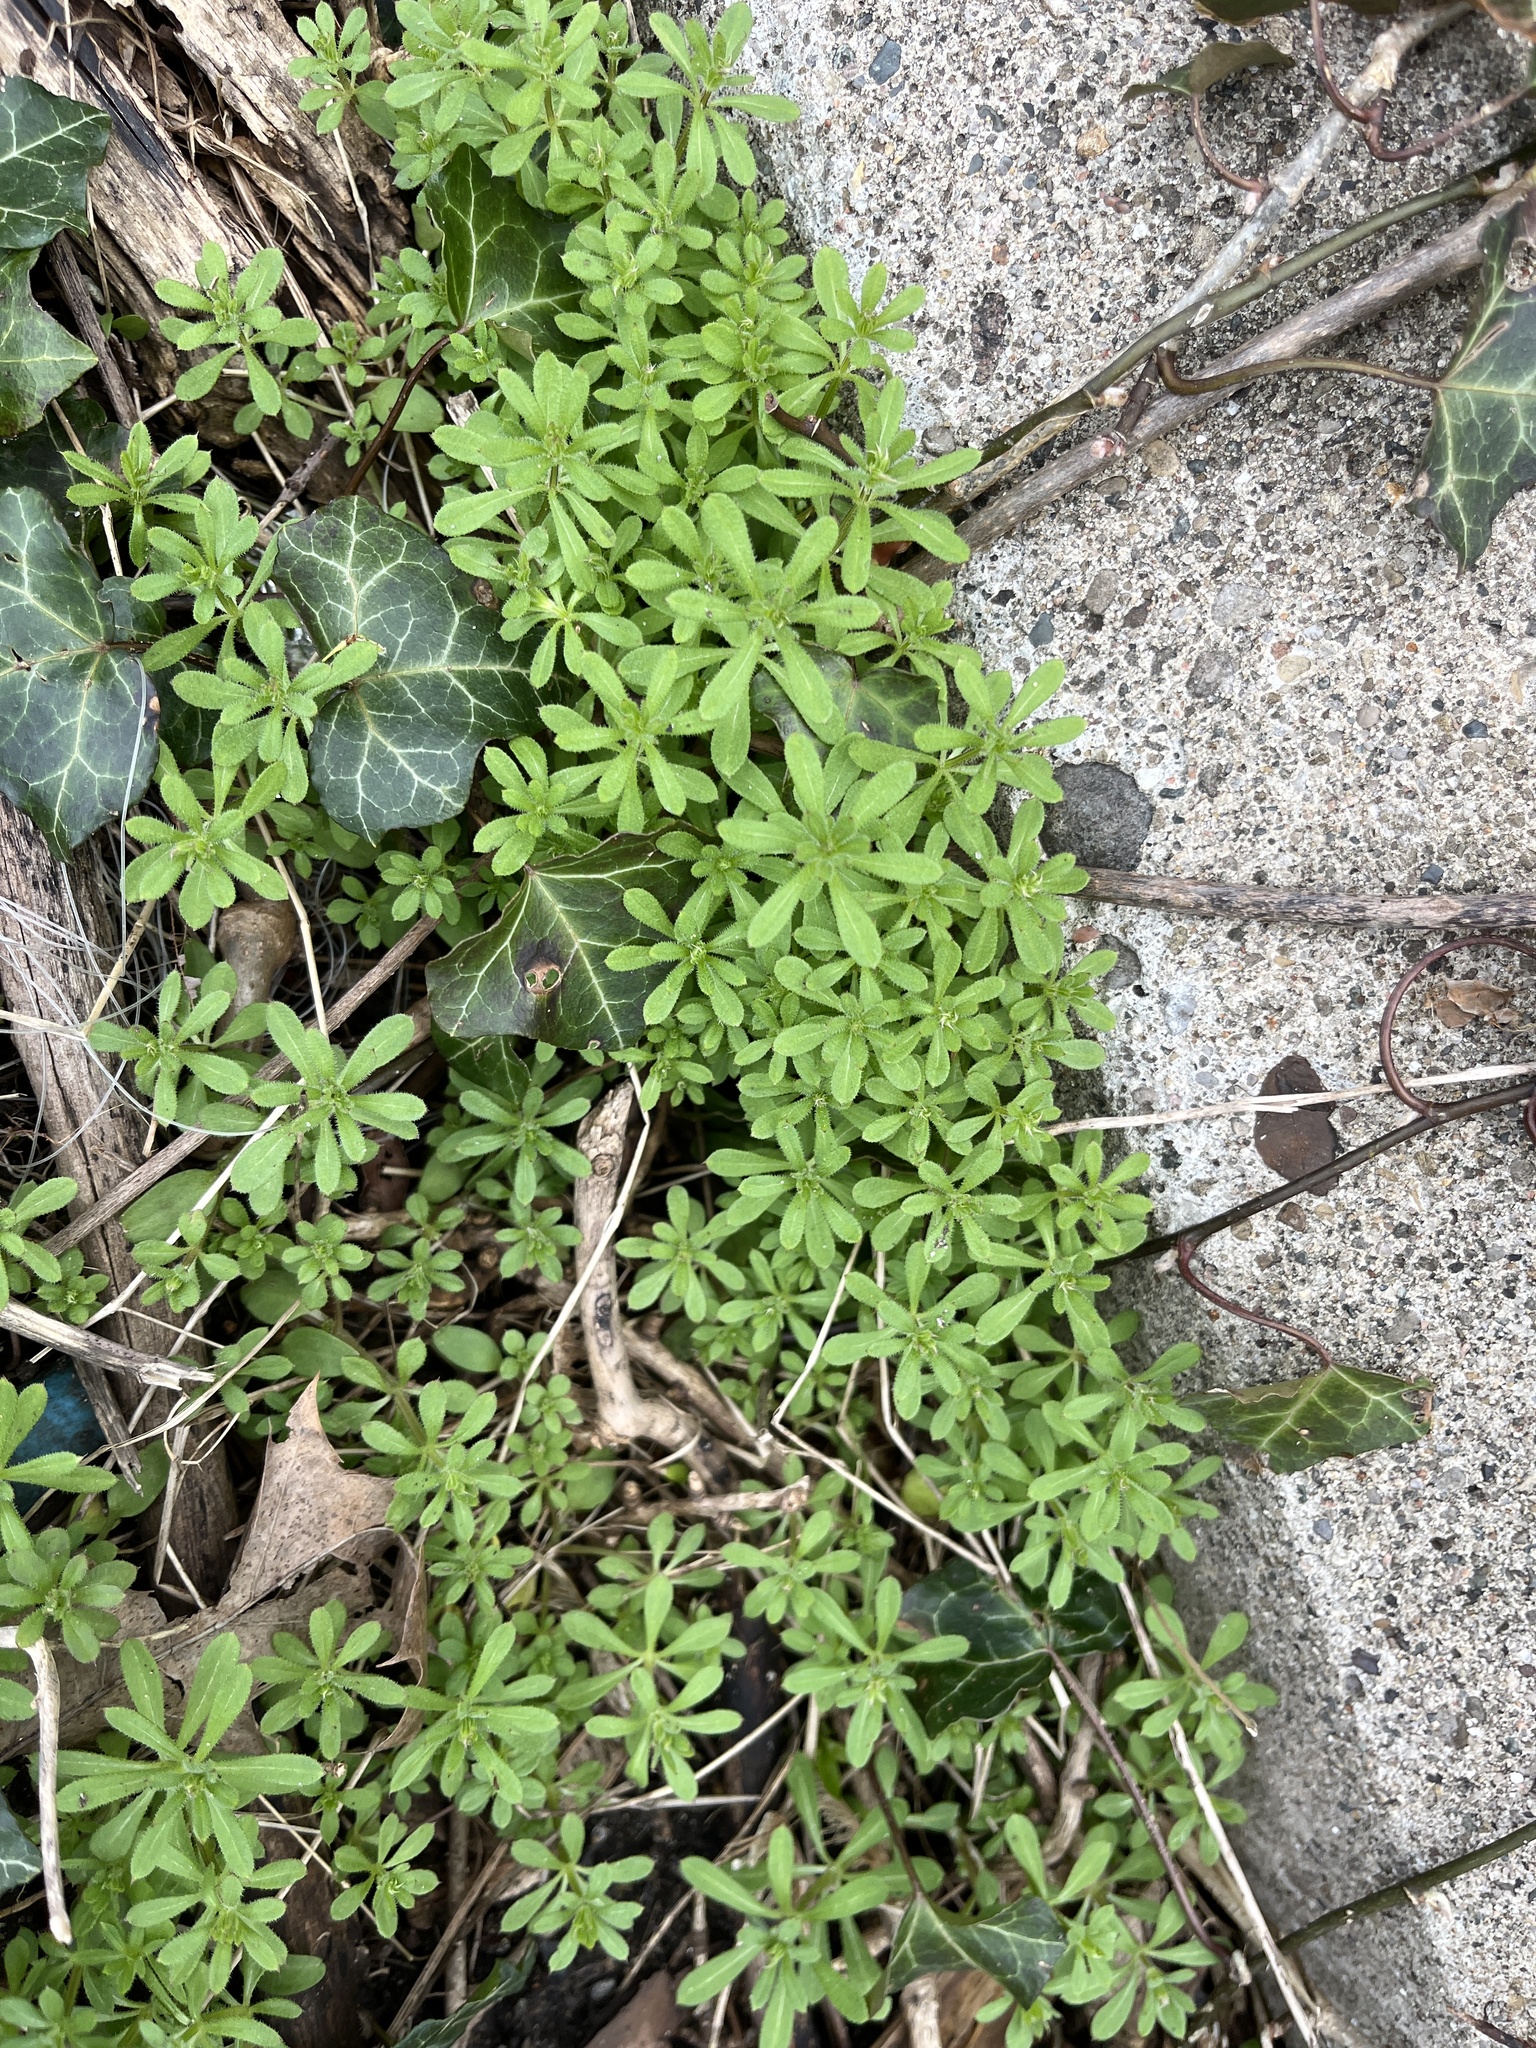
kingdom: Plantae
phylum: Tracheophyta
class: Magnoliopsida
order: Gentianales
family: Rubiaceae
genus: Galium
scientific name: Galium aparine
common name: Cleavers
